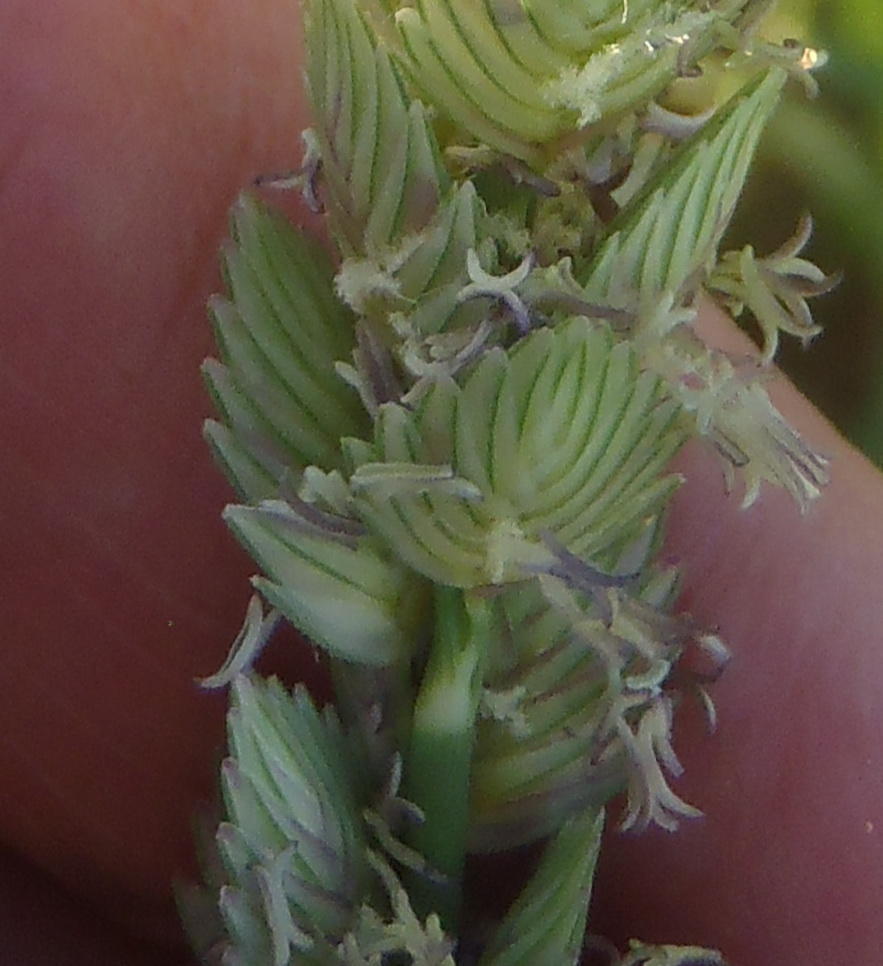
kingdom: Plantae
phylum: Tracheophyta
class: Liliopsida
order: Poales
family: Poaceae
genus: Eragrostis
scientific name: Eragrostis superba
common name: Wilman lovegrass
